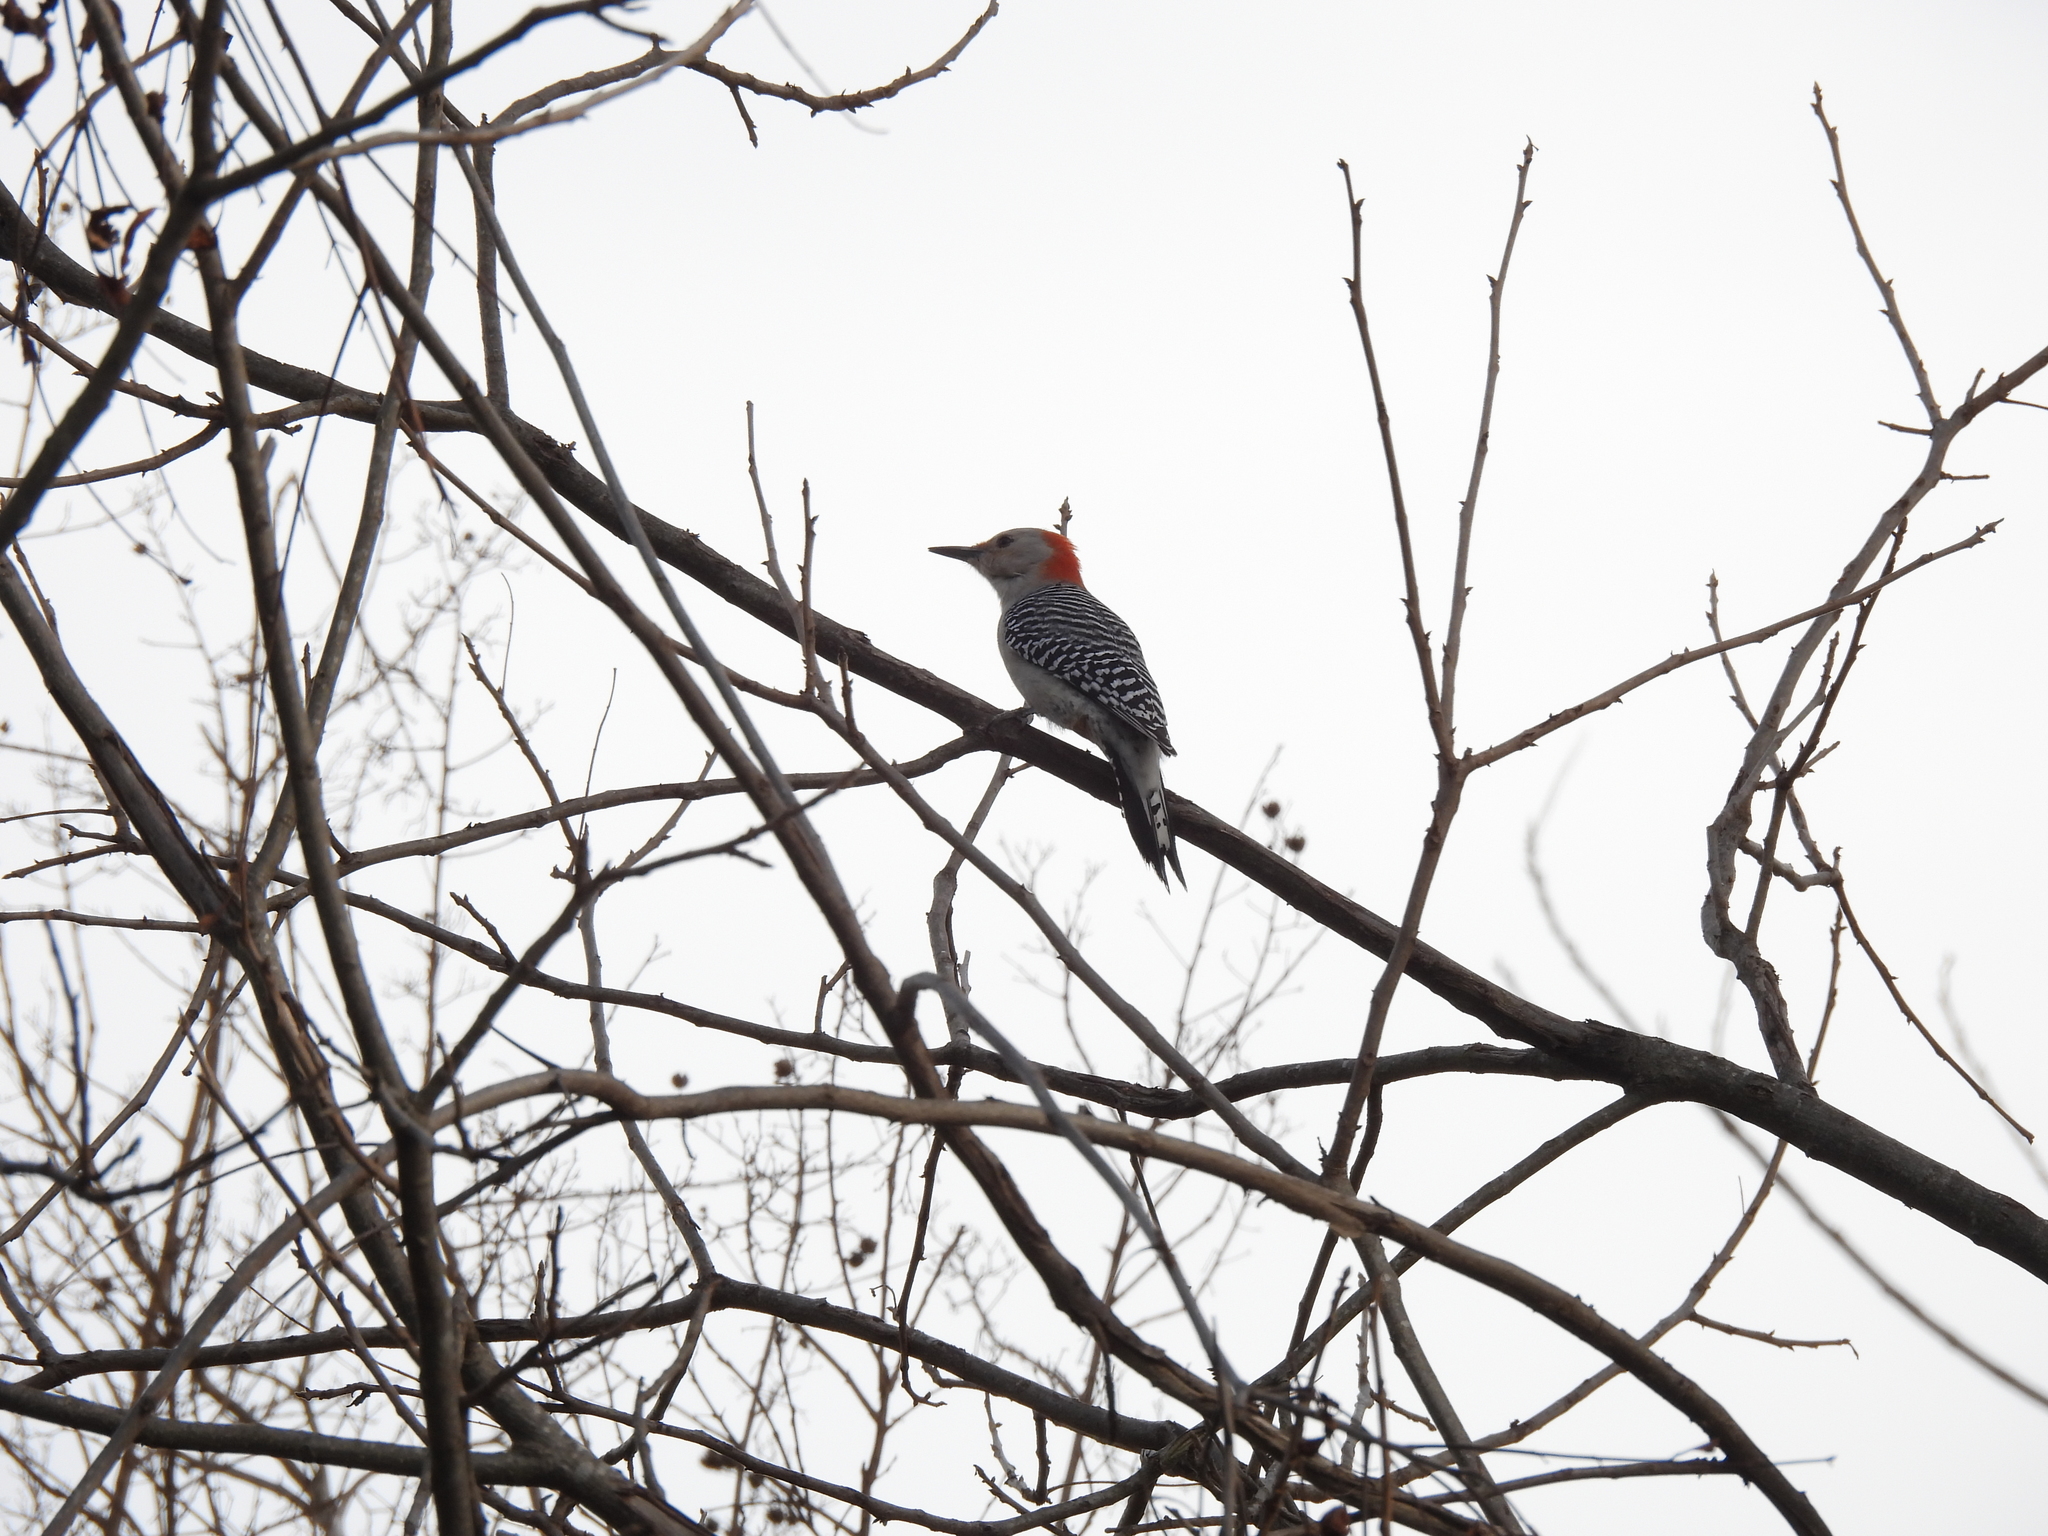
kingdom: Animalia
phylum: Chordata
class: Aves
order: Piciformes
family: Picidae
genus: Melanerpes
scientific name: Melanerpes carolinus
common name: Red-bellied woodpecker
